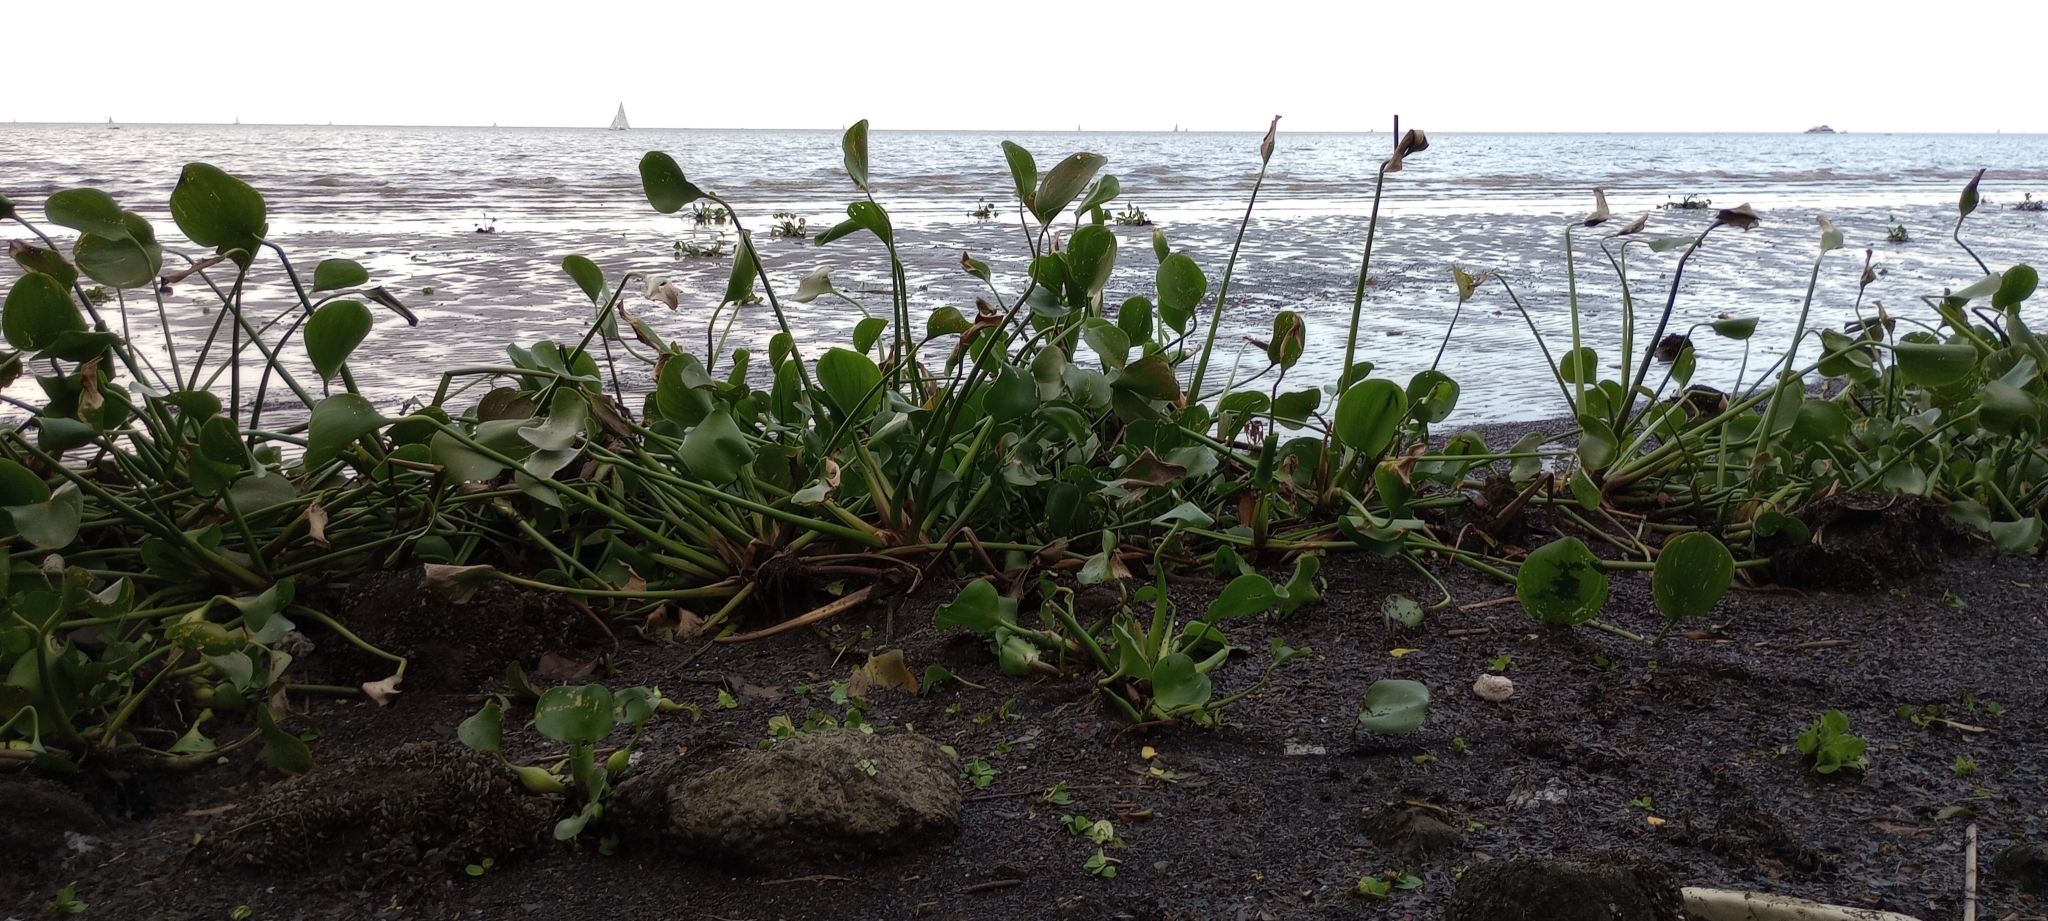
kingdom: Plantae
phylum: Tracheophyta
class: Liliopsida
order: Commelinales
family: Pontederiaceae
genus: Pontederia
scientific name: Pontederia crassipes
